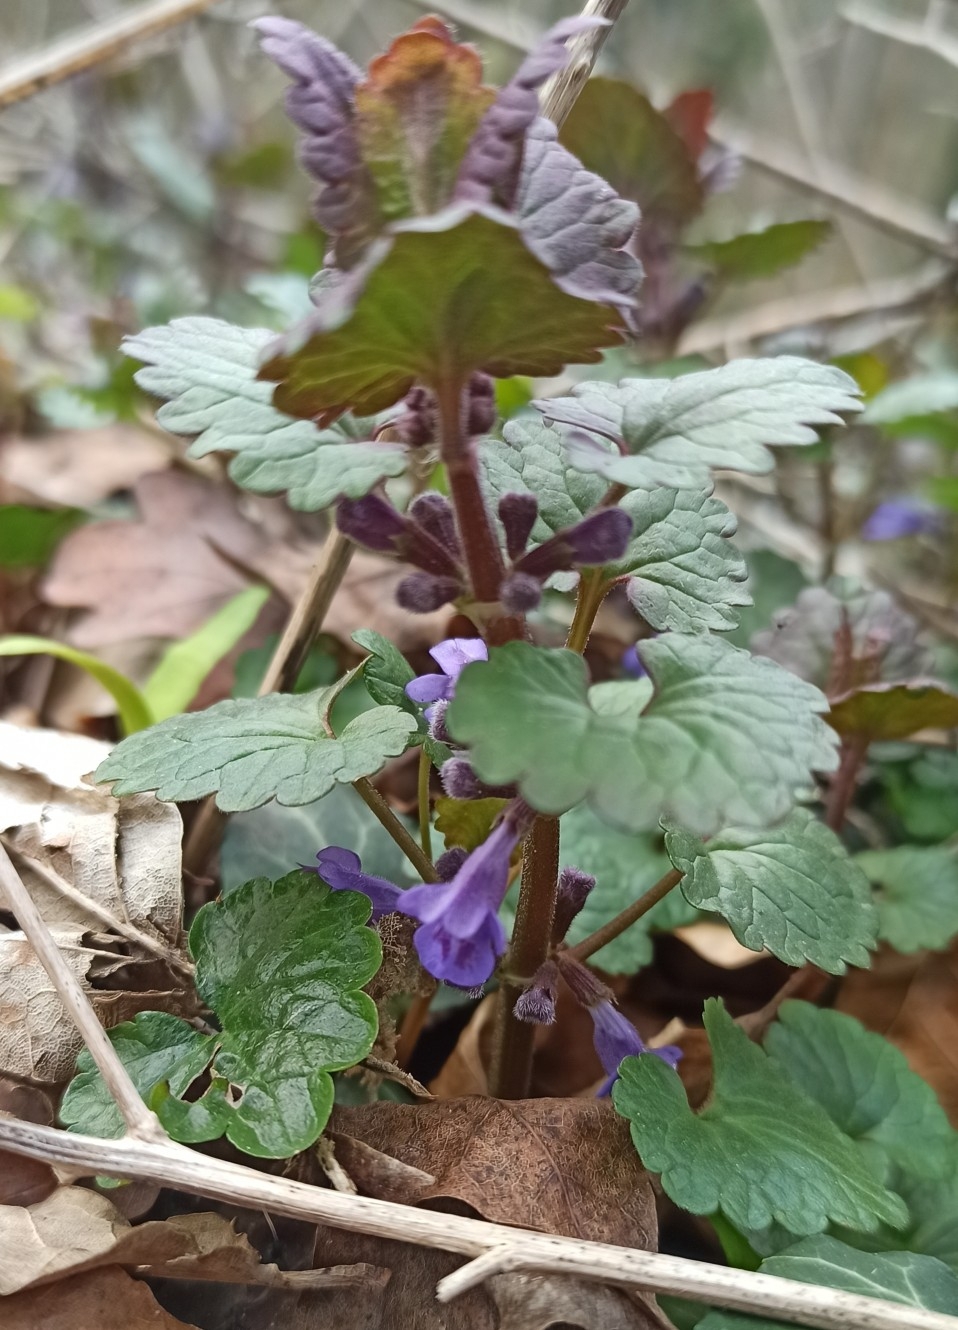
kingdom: Plantae
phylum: Tracheophyta
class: Magnoliopsida
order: Lamiales
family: Lamiaceae
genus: Glechoma
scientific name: Glechoma hederacea
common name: Ground ivy
